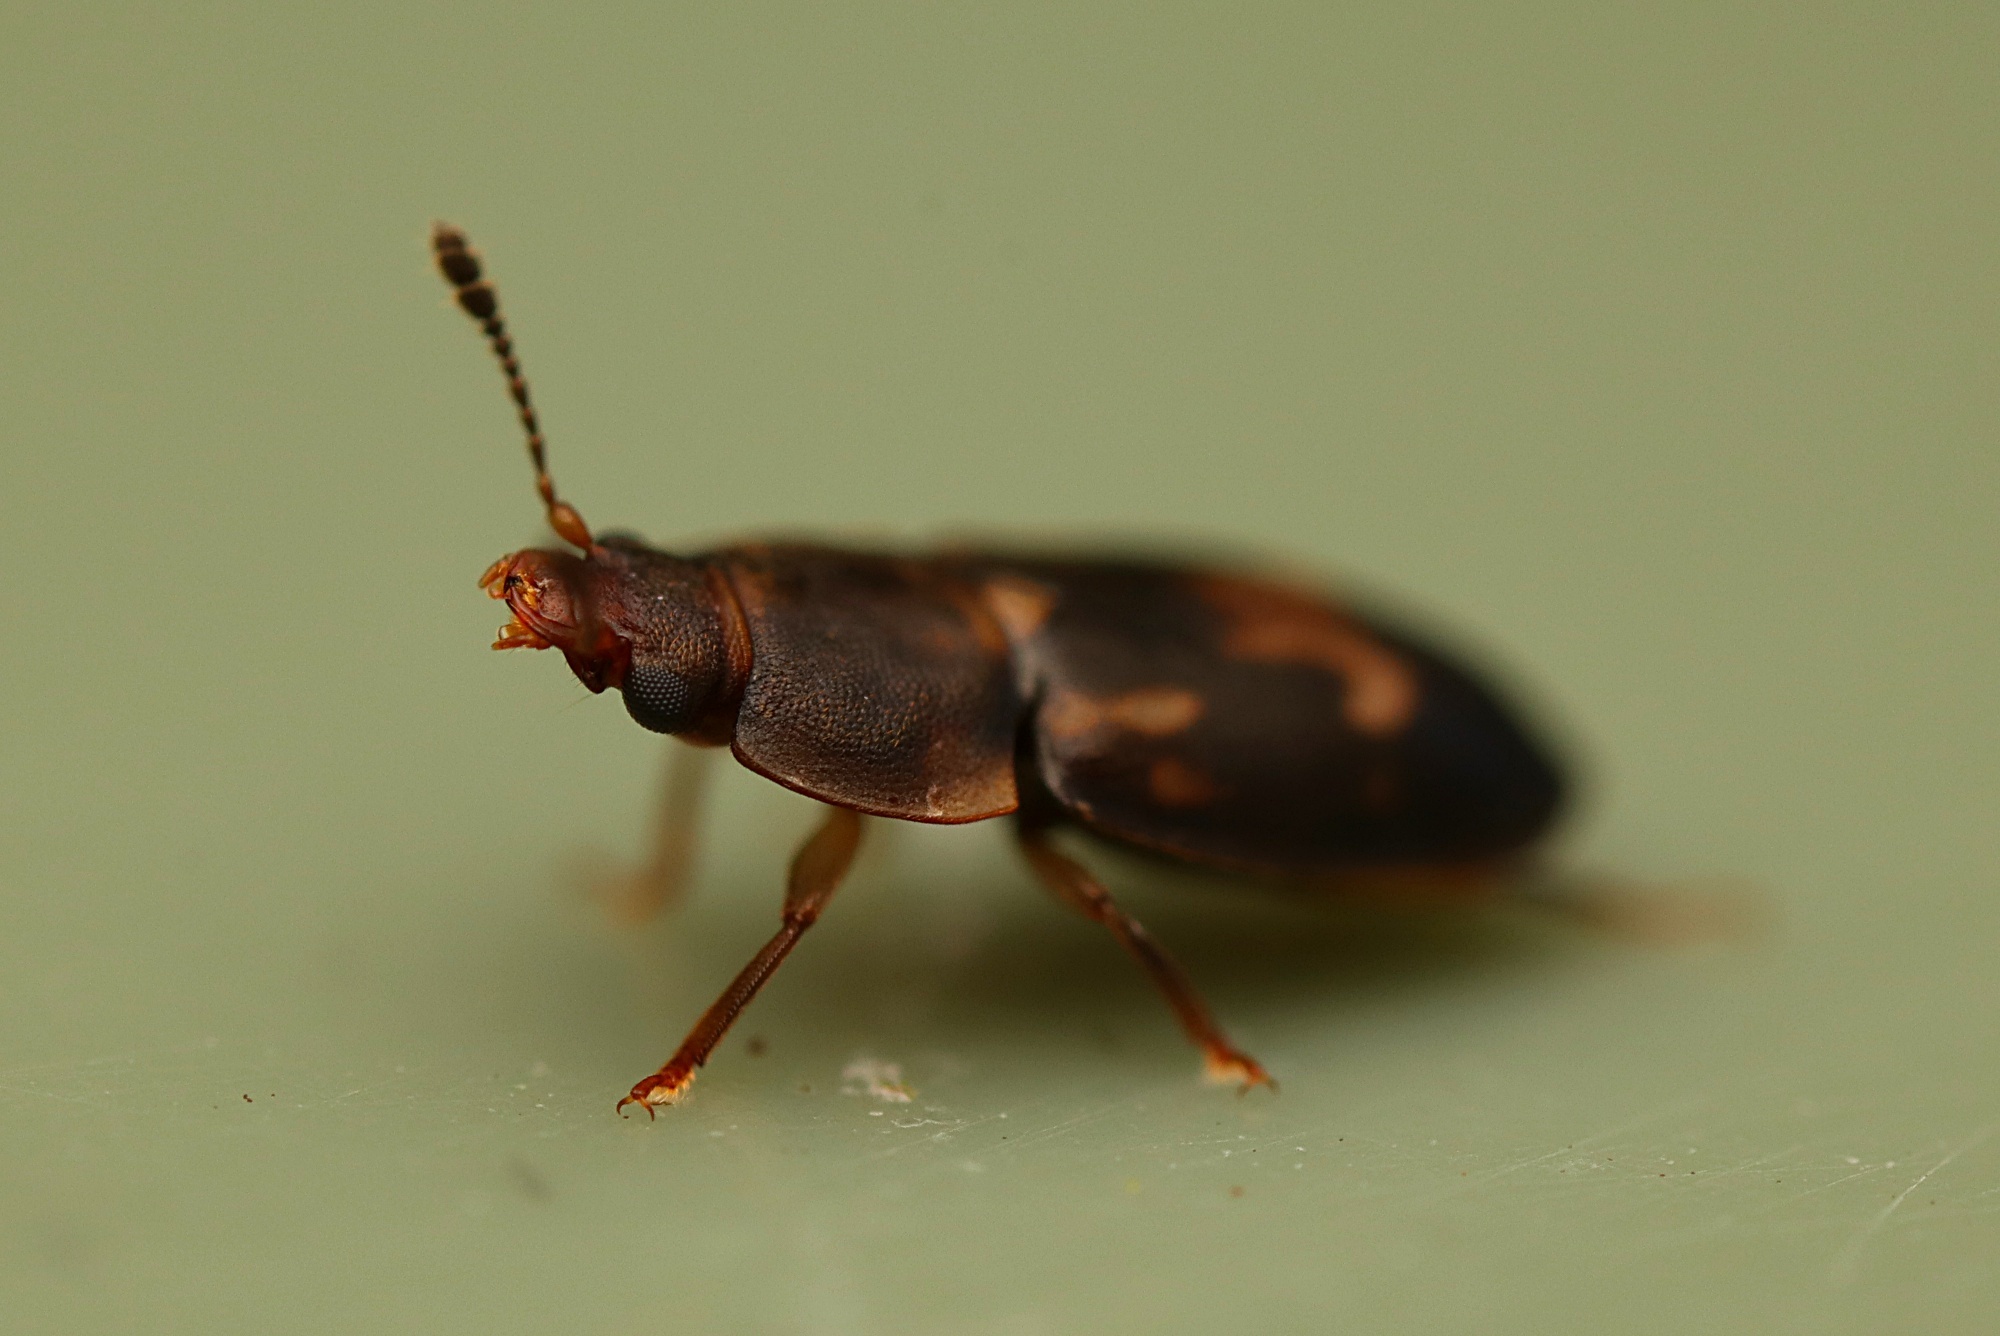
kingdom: Animalia
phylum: Arthropoda
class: Insecta
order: Coleoptera
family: Nitidulidae
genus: Epuraea
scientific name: Epuraea signata
